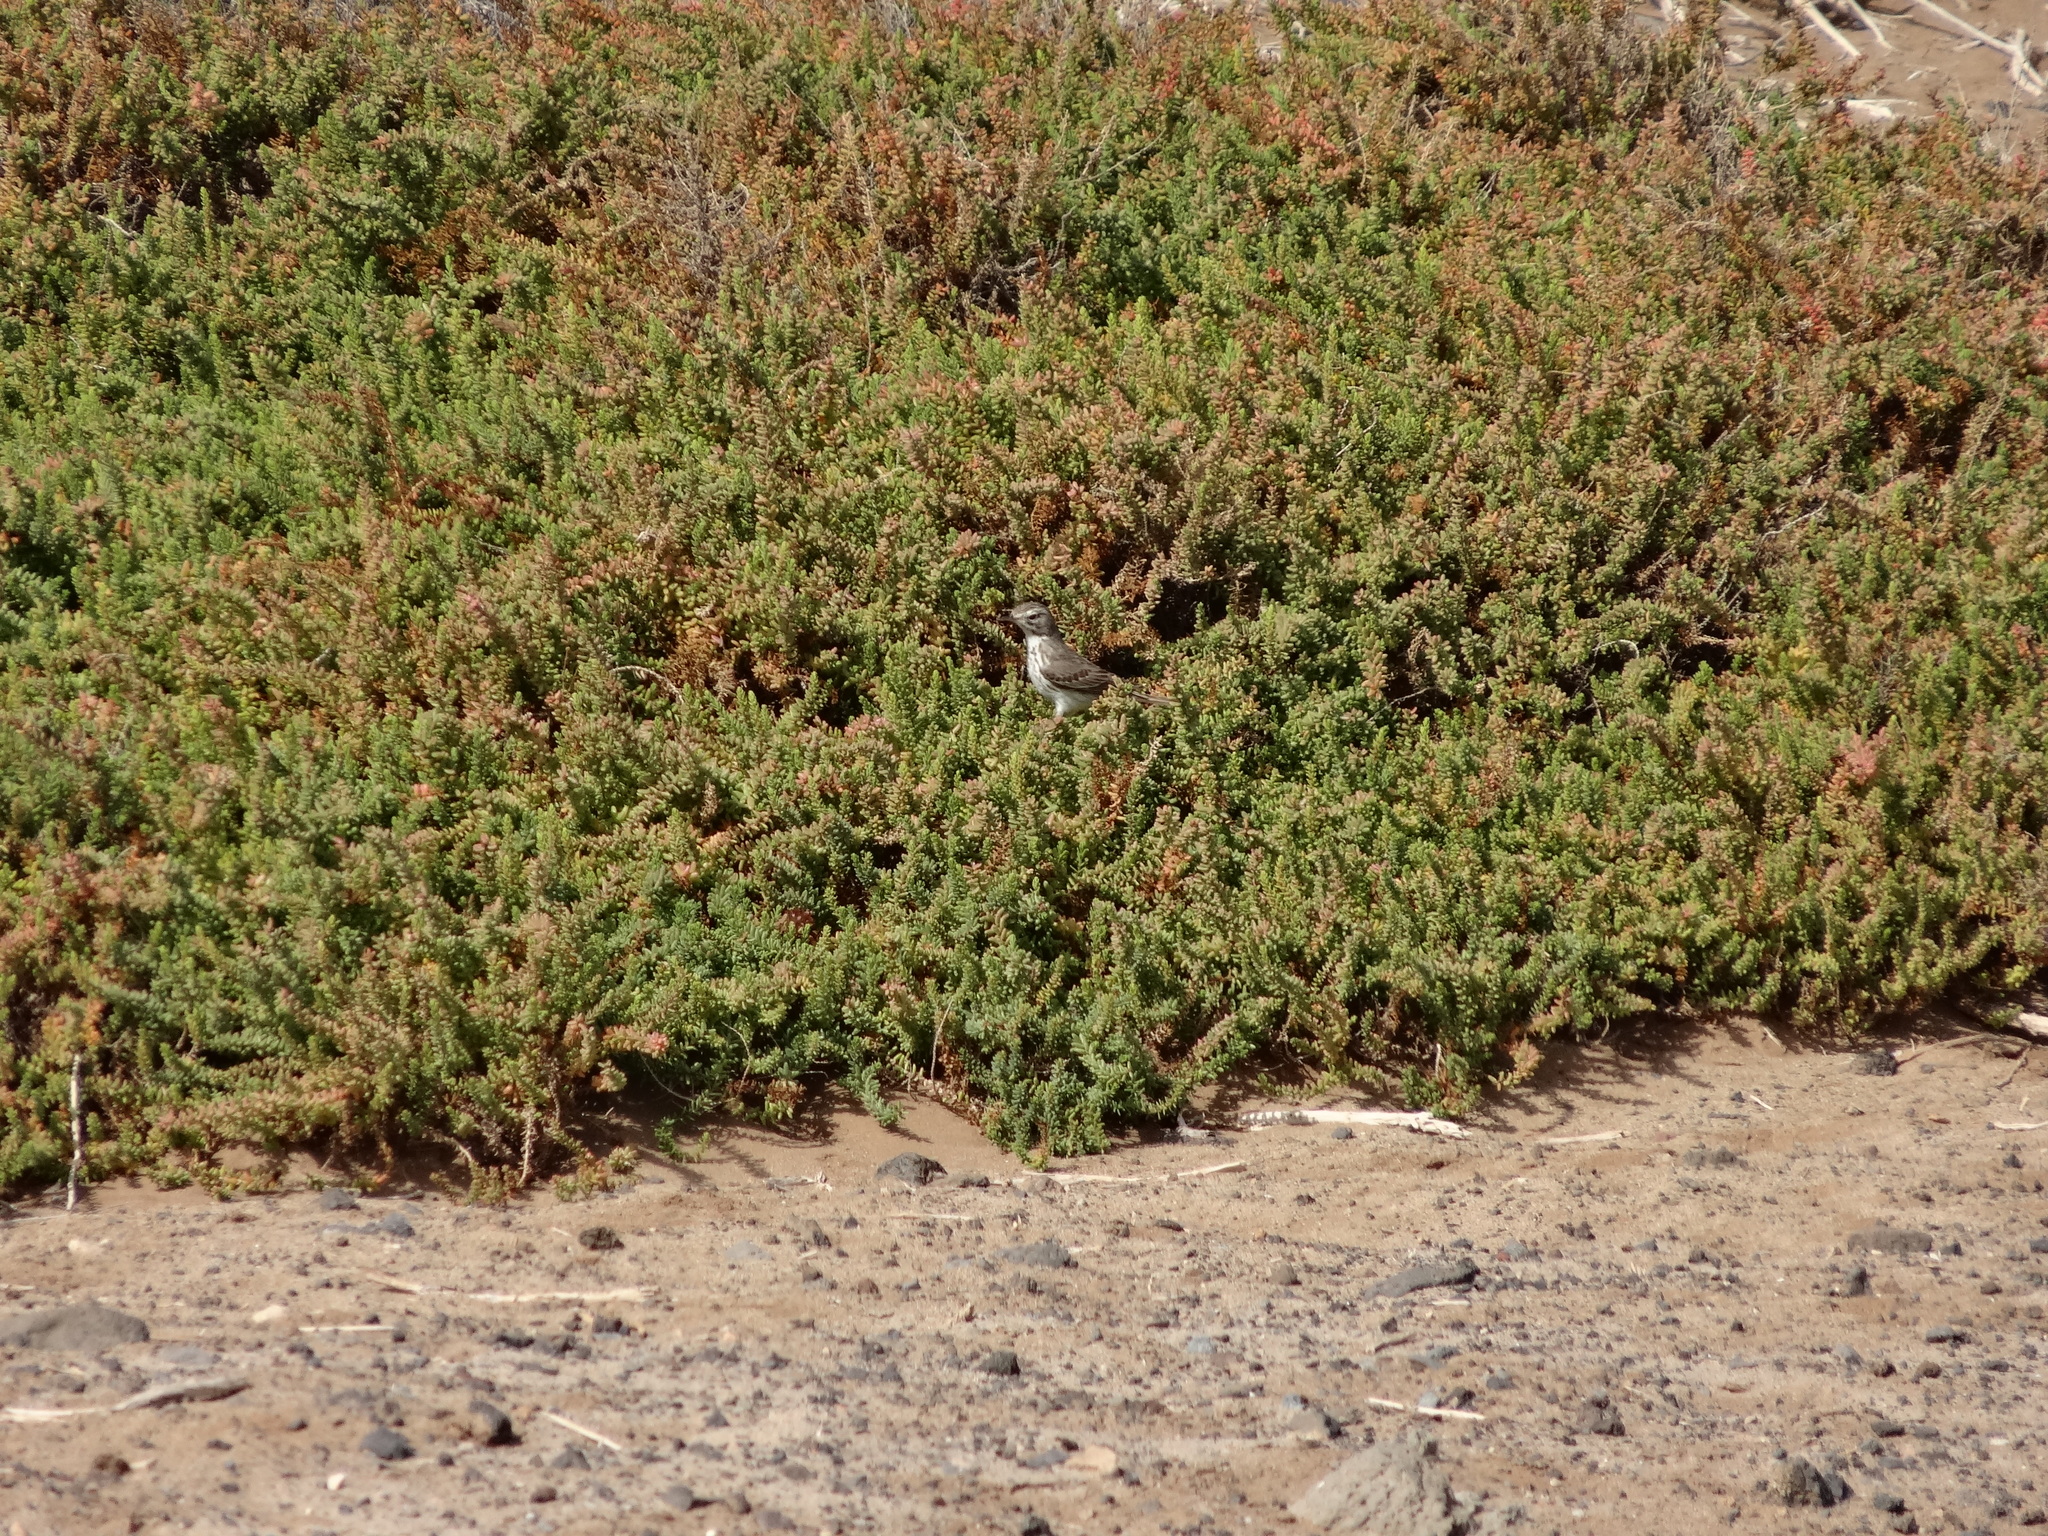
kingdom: Animalia
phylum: Chordata
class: Aves
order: Passeriformes
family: Motacillidae
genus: Anthus
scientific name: Anthus berthelotii
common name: Berthelot's pipit
